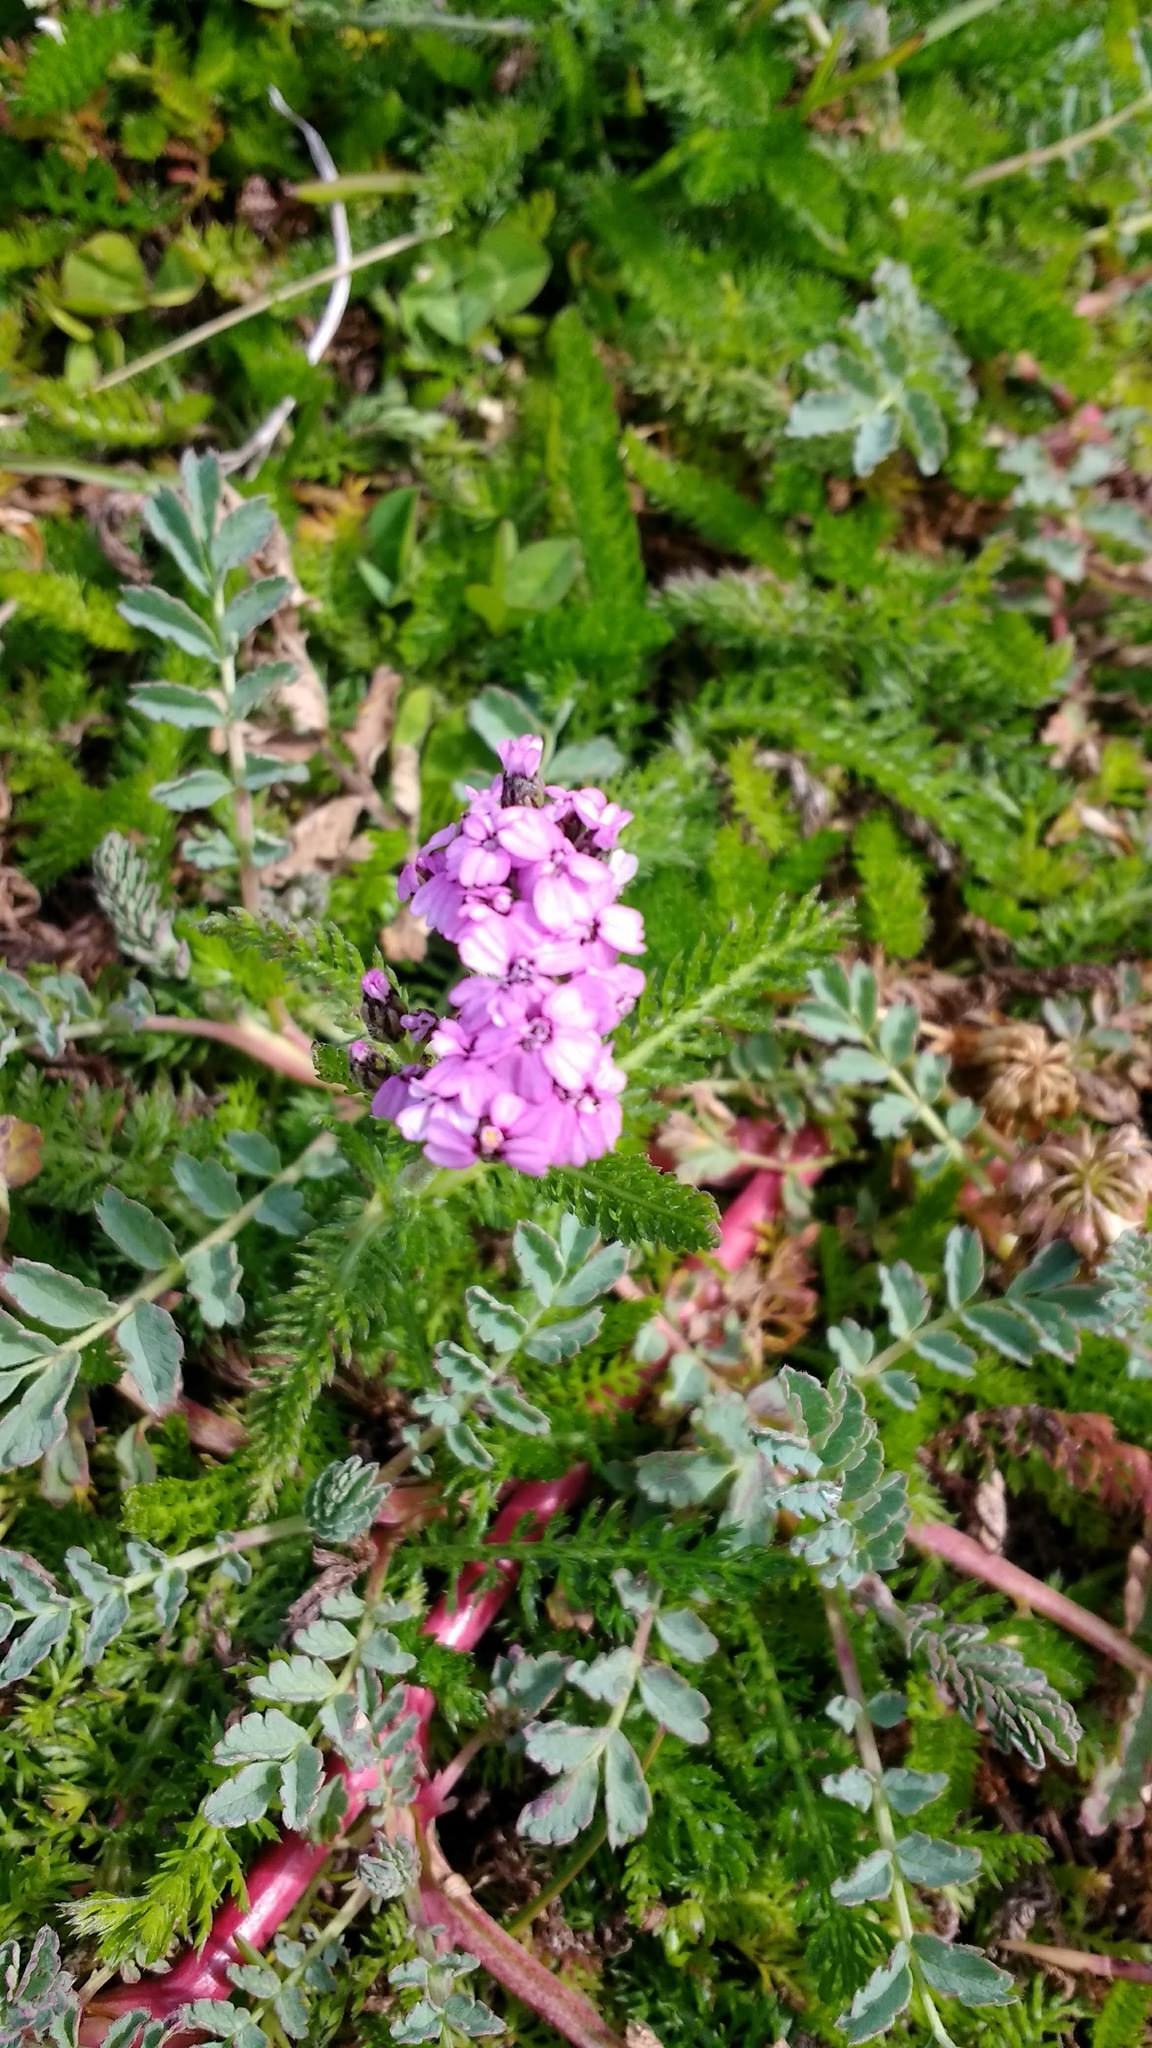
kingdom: Plantae
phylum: Tracheophyta
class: Magnoliopsida
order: Asterales
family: Asteraceae
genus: Achillea
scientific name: Achillea millefolium
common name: Yarrow
